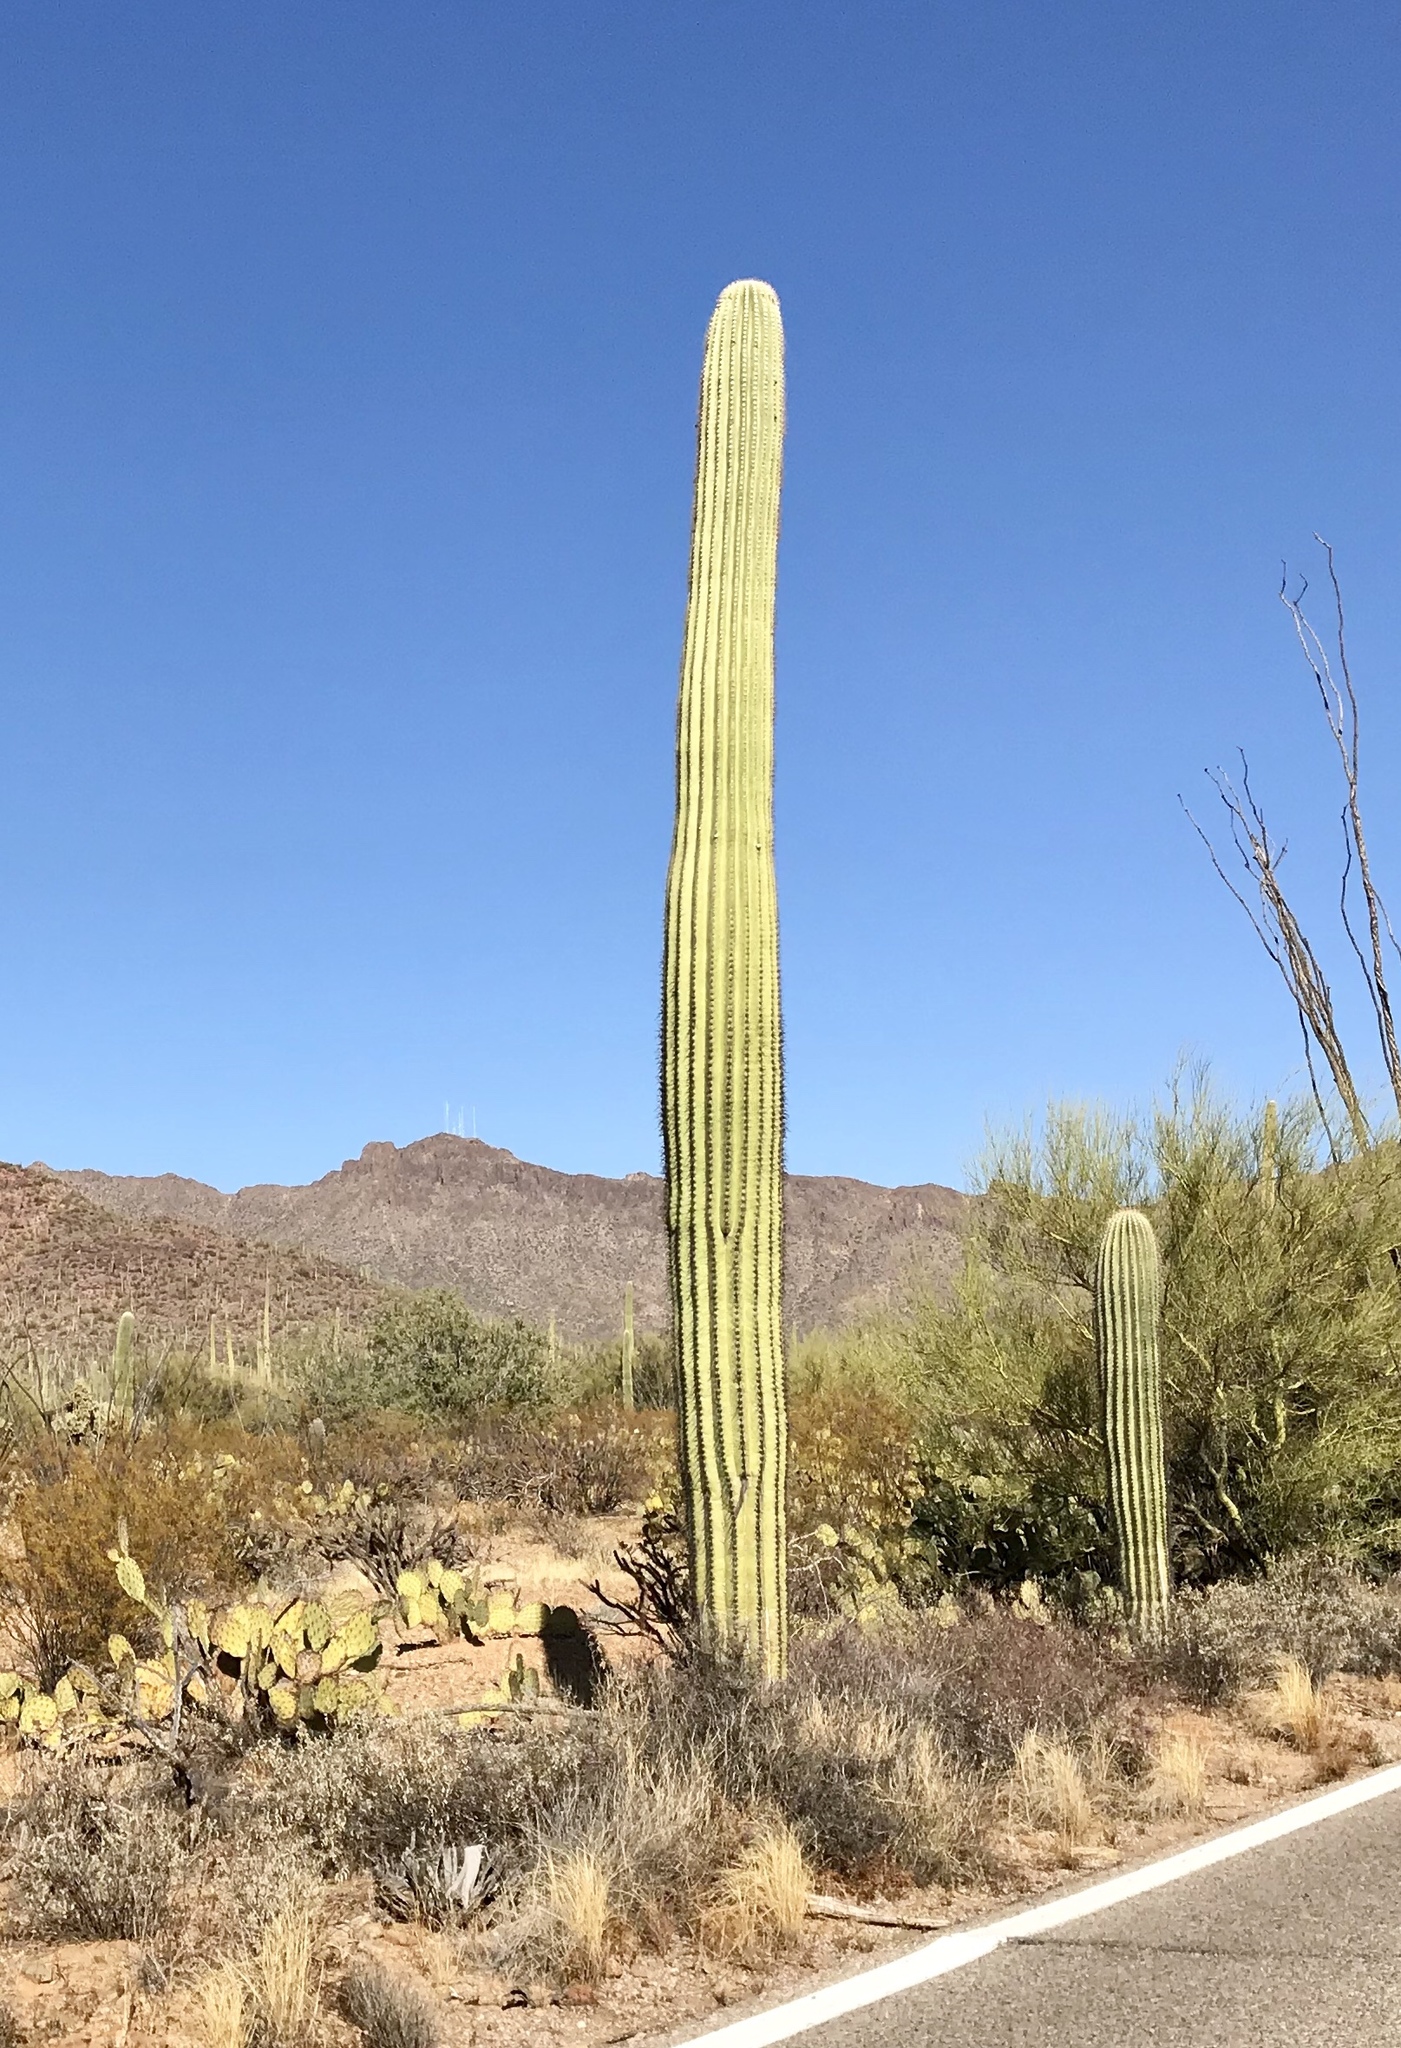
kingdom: Plantae
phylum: Tracheophyta
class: Magnoliopsida
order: Caryophyllales
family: Cactaceae
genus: Carnegiea
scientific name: Carnegiea gigantea
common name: Saguaro
